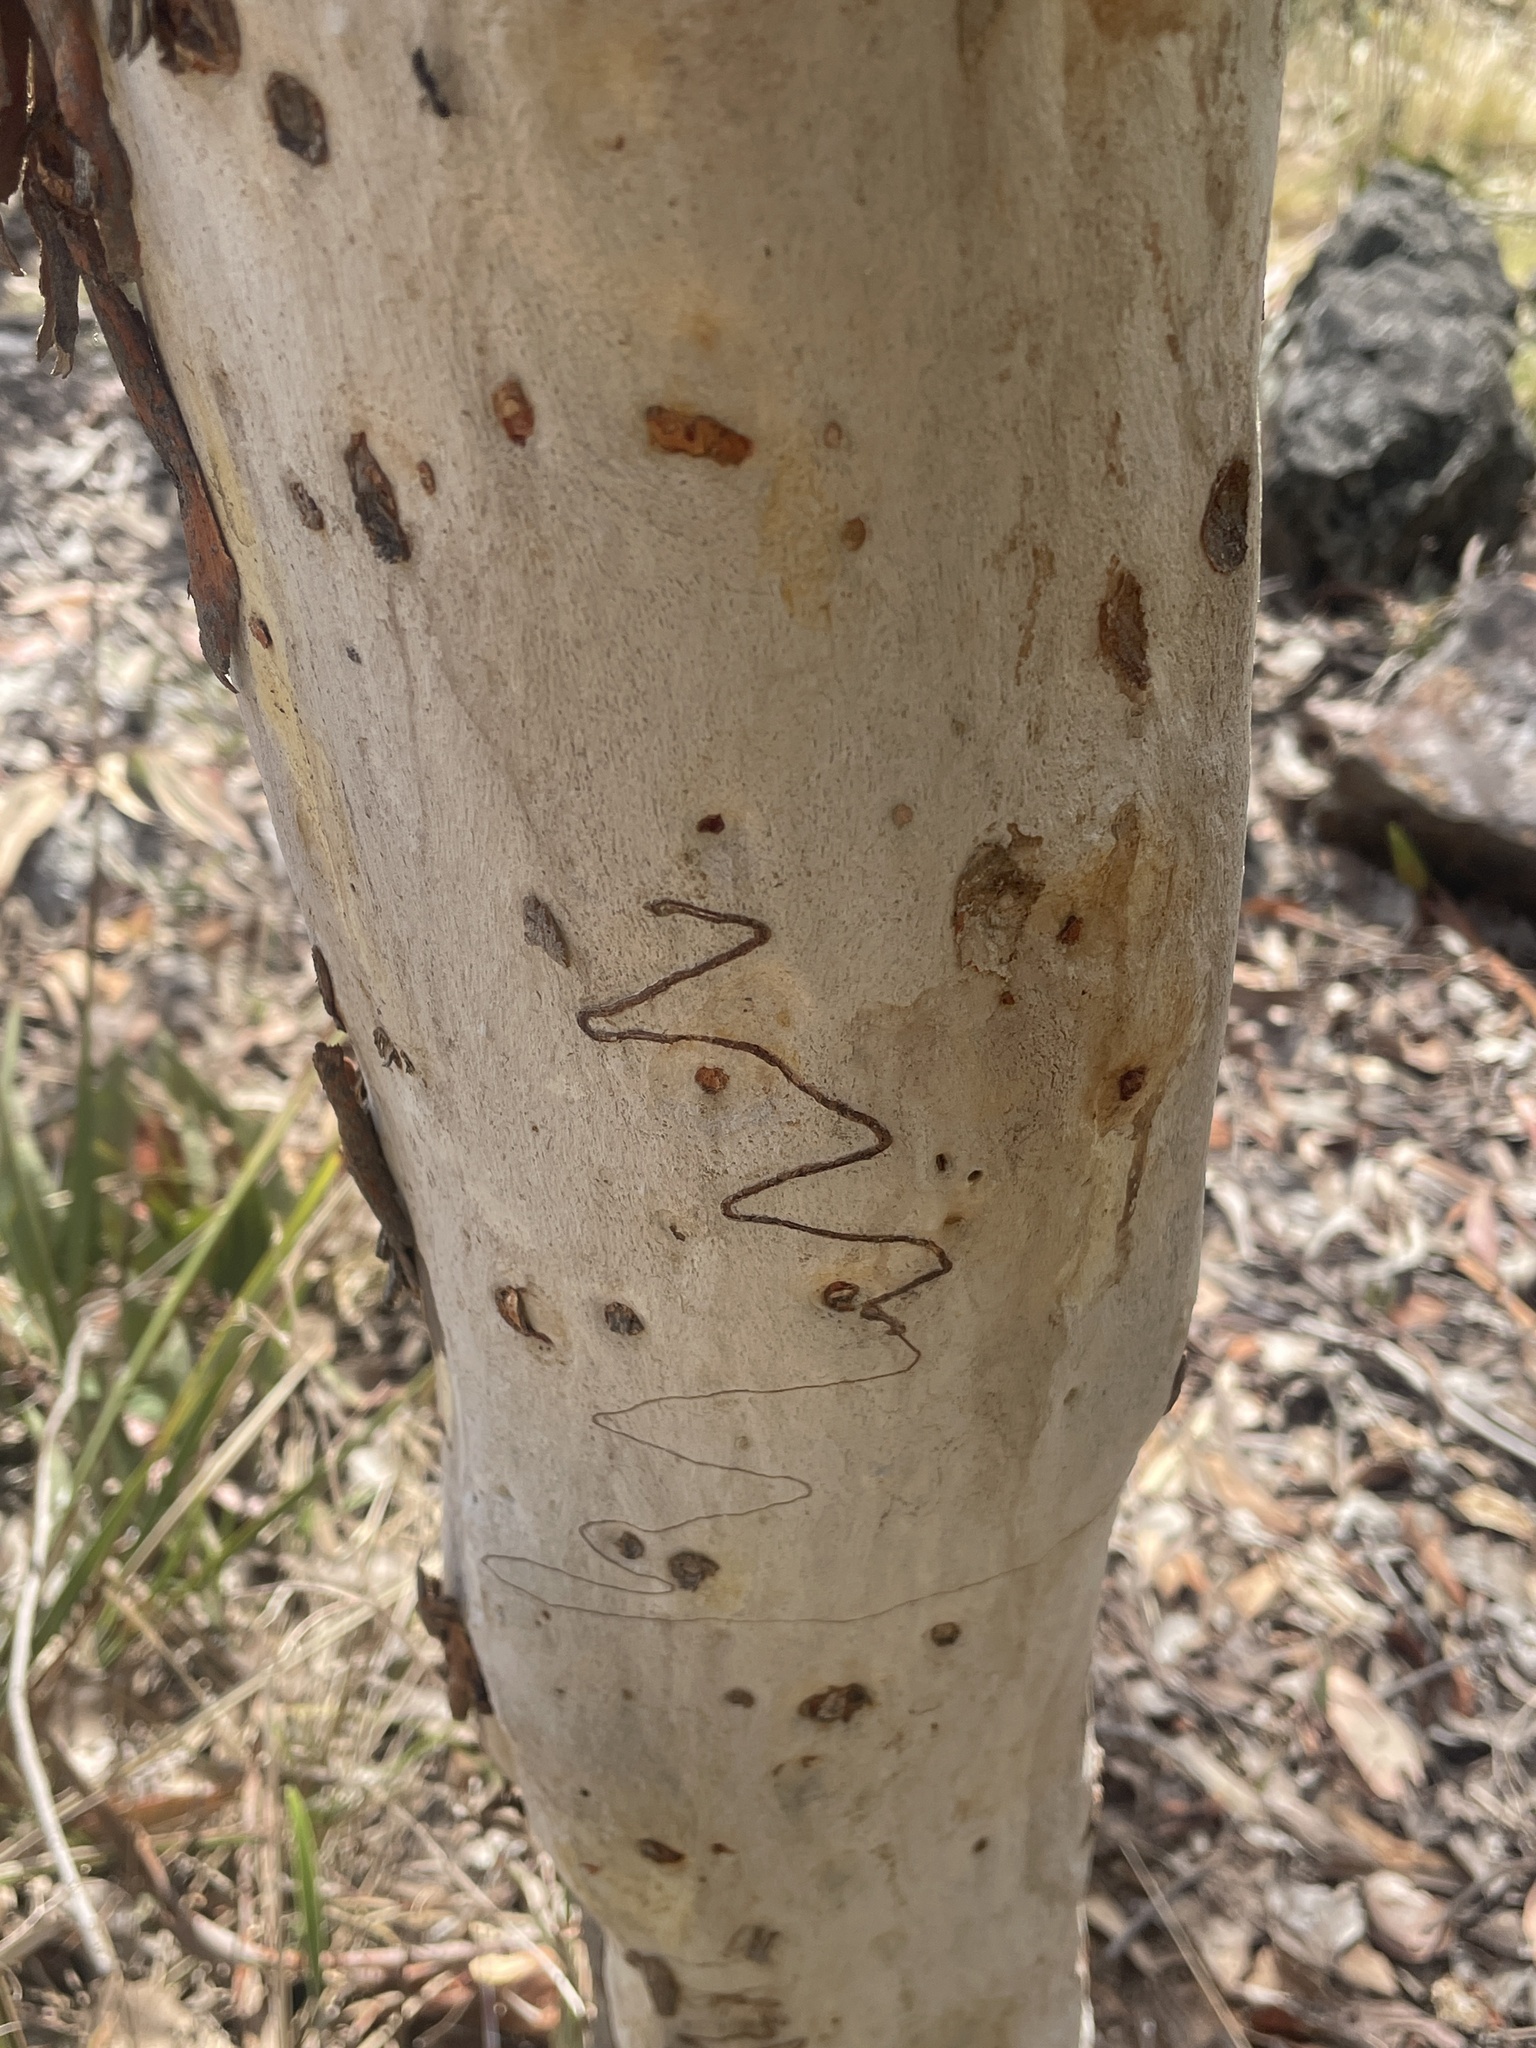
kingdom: Plantae
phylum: Tracheophyta
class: Magnoliopsida
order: Myrtales
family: Myrtaceae
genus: Eucalyptus
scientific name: Eucalyptus
